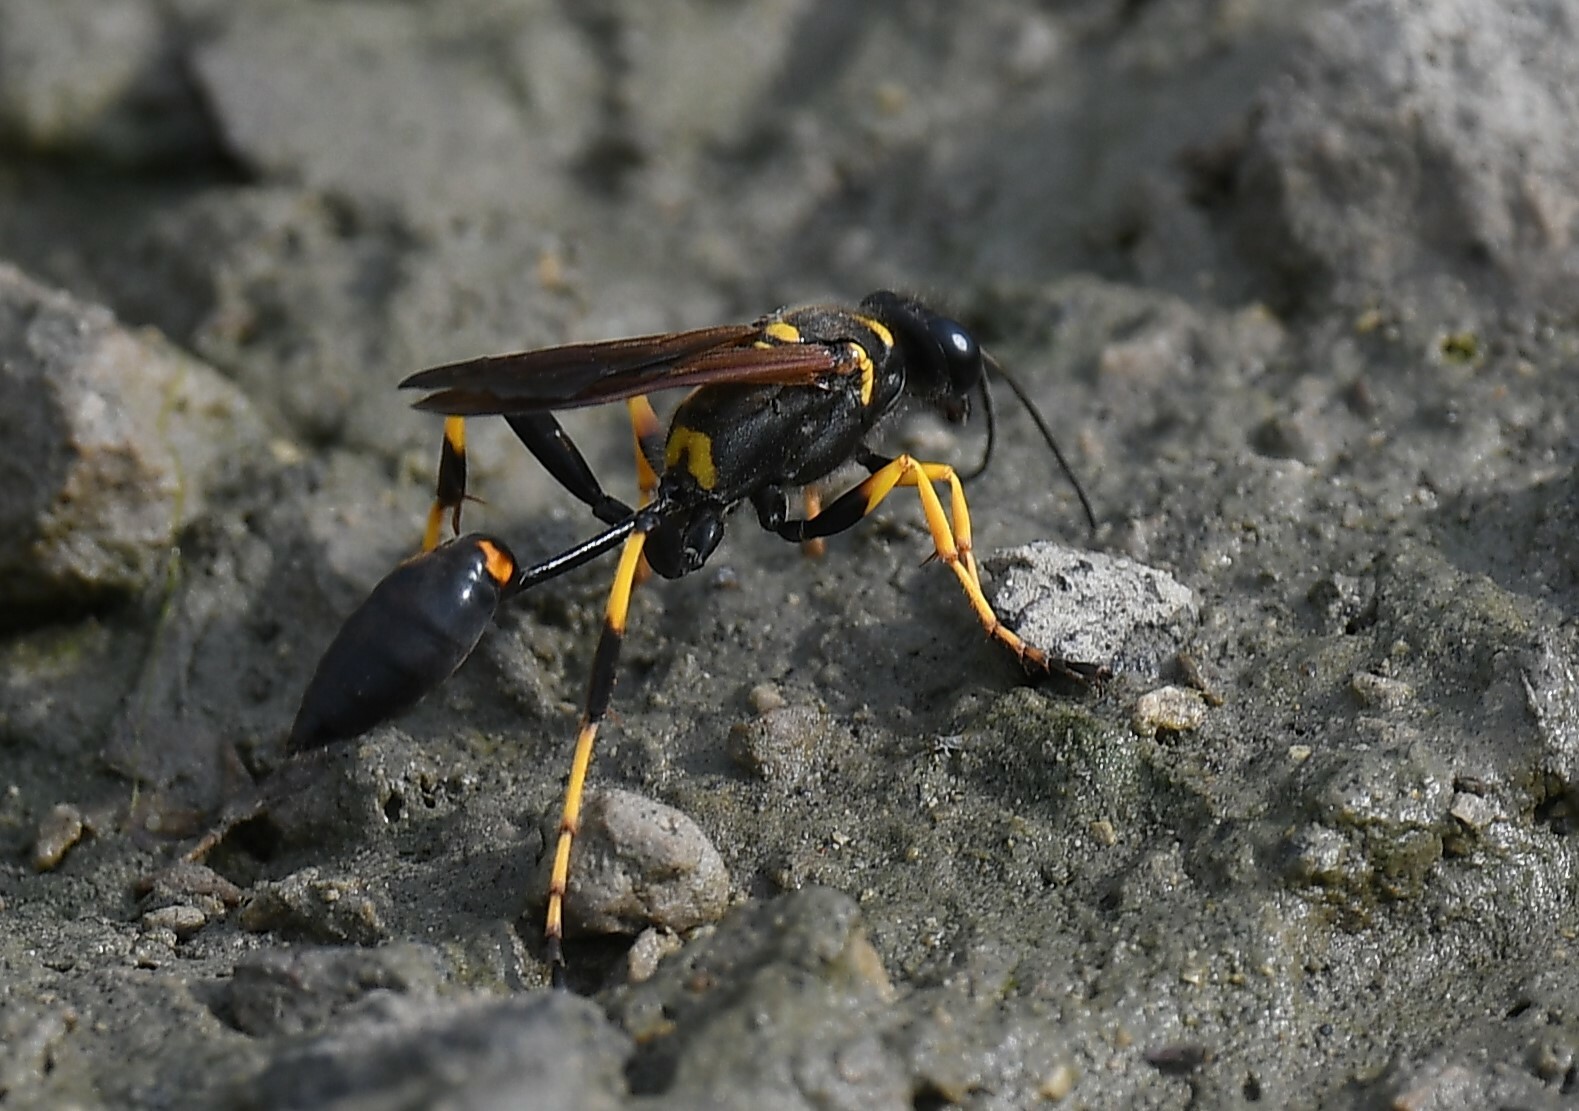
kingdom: Animalia
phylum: Arthropoda
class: Insecta
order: Hymenoptera
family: Sphecidae
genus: Sceliphron
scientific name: Sceliphron caementarium
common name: Mud dauber
